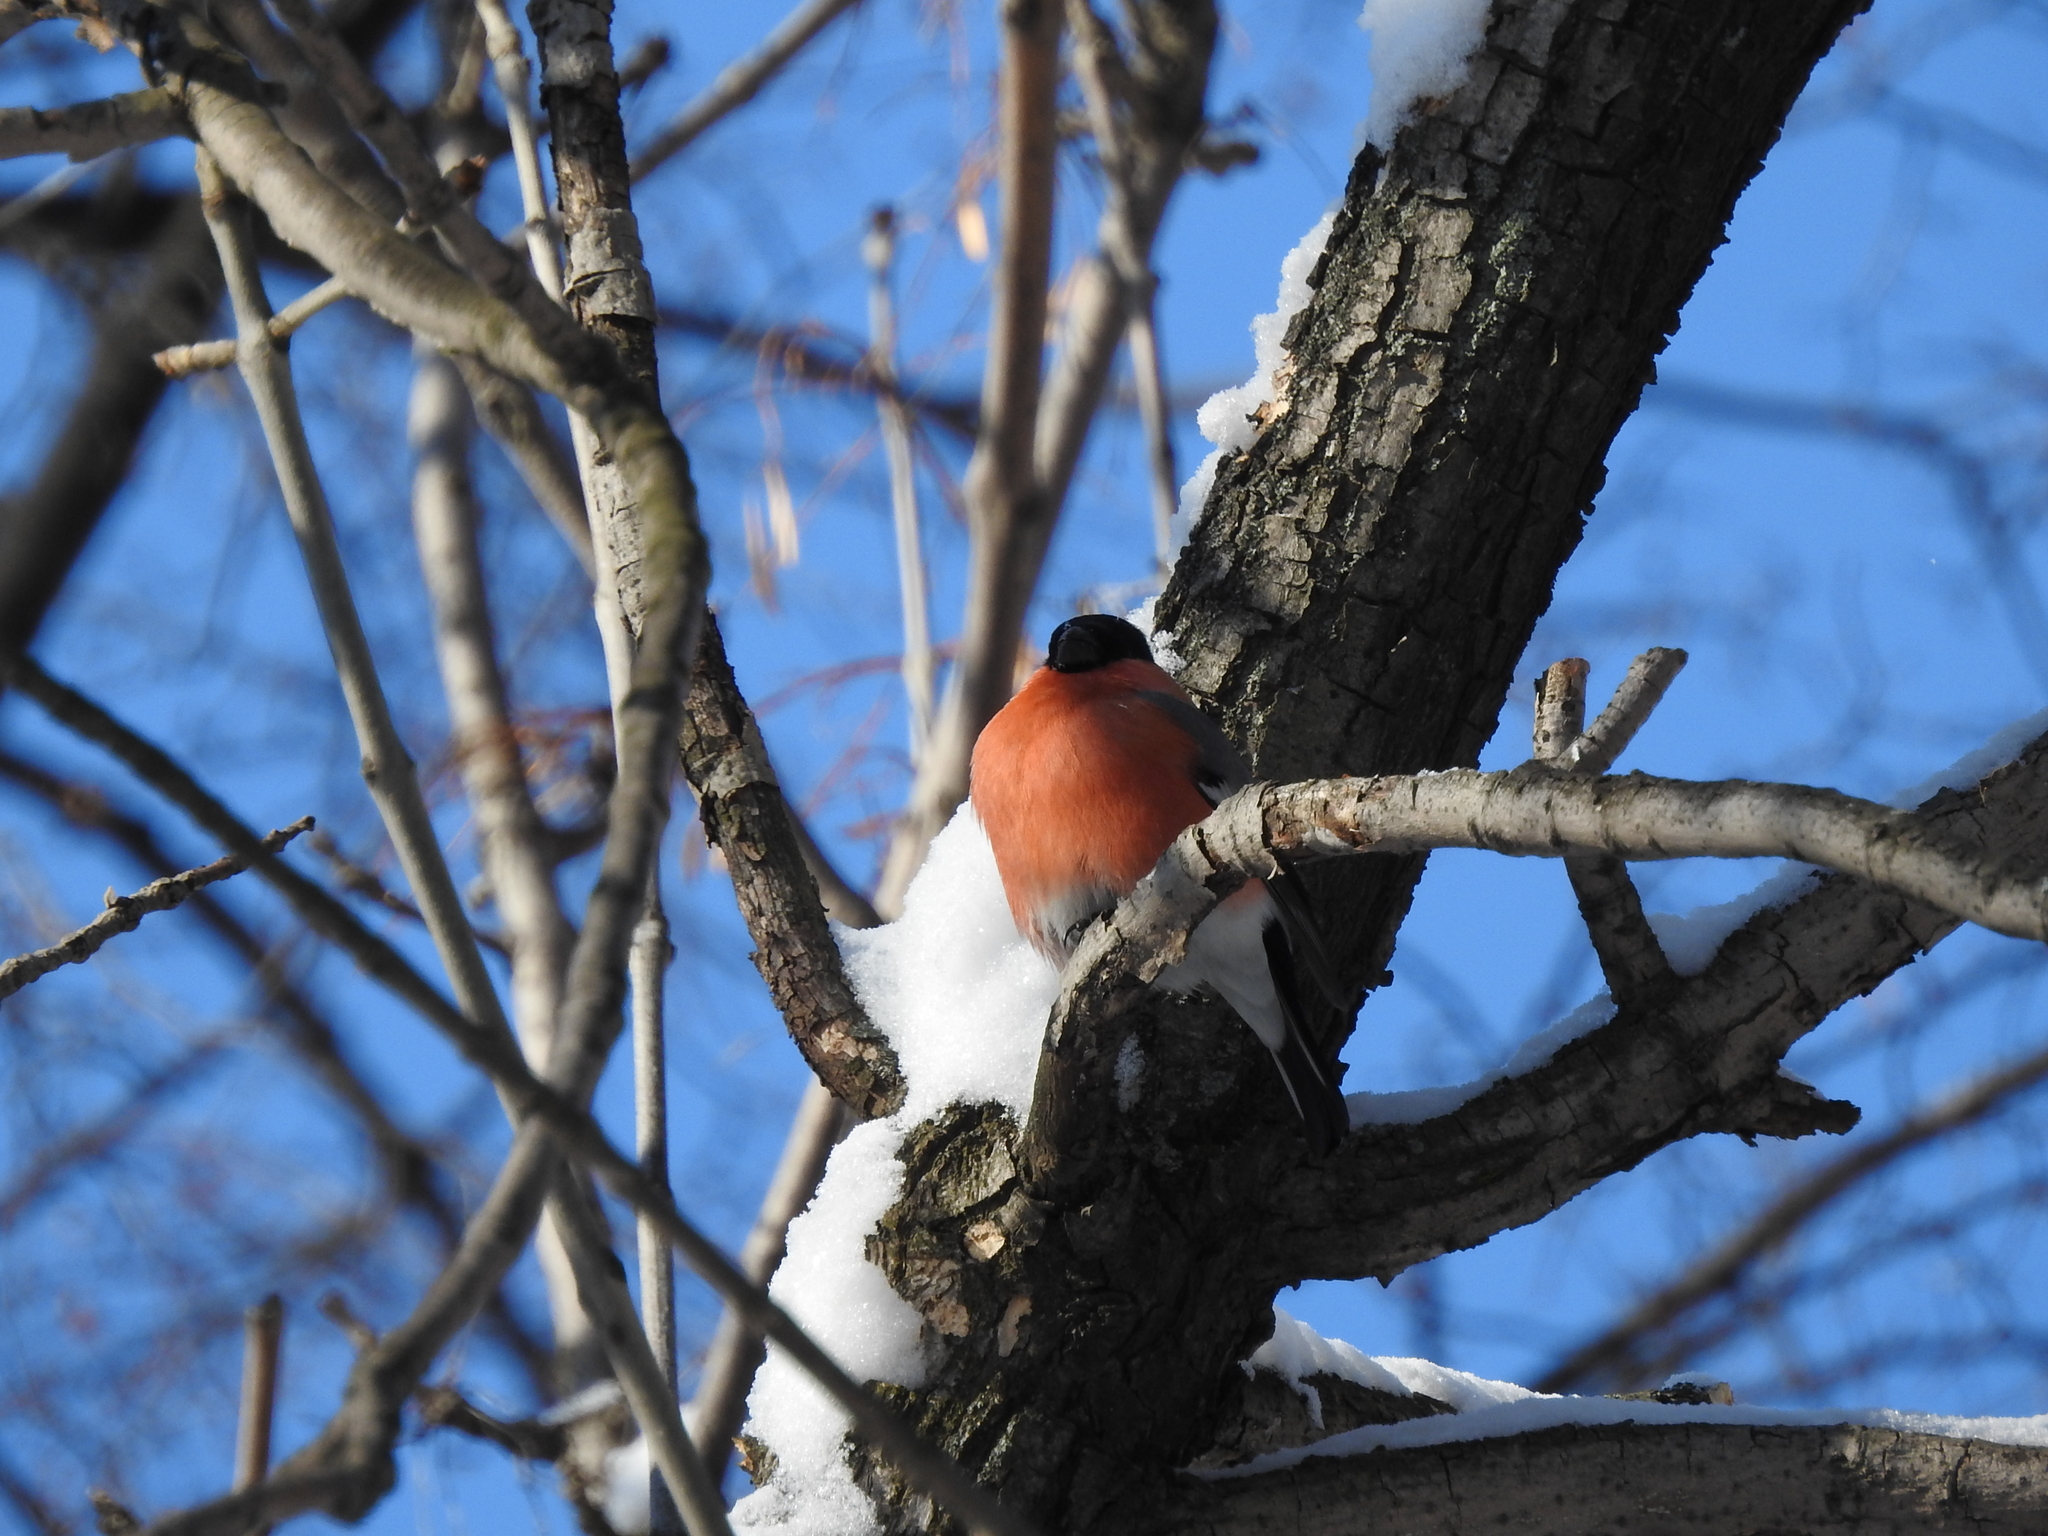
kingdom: Animalia
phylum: Chordata
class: Aves
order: Passeriformes
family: Fringillidae
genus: Pyrrhula
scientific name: Pyrrhula pyrrhula
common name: Eurasian bullfinch
